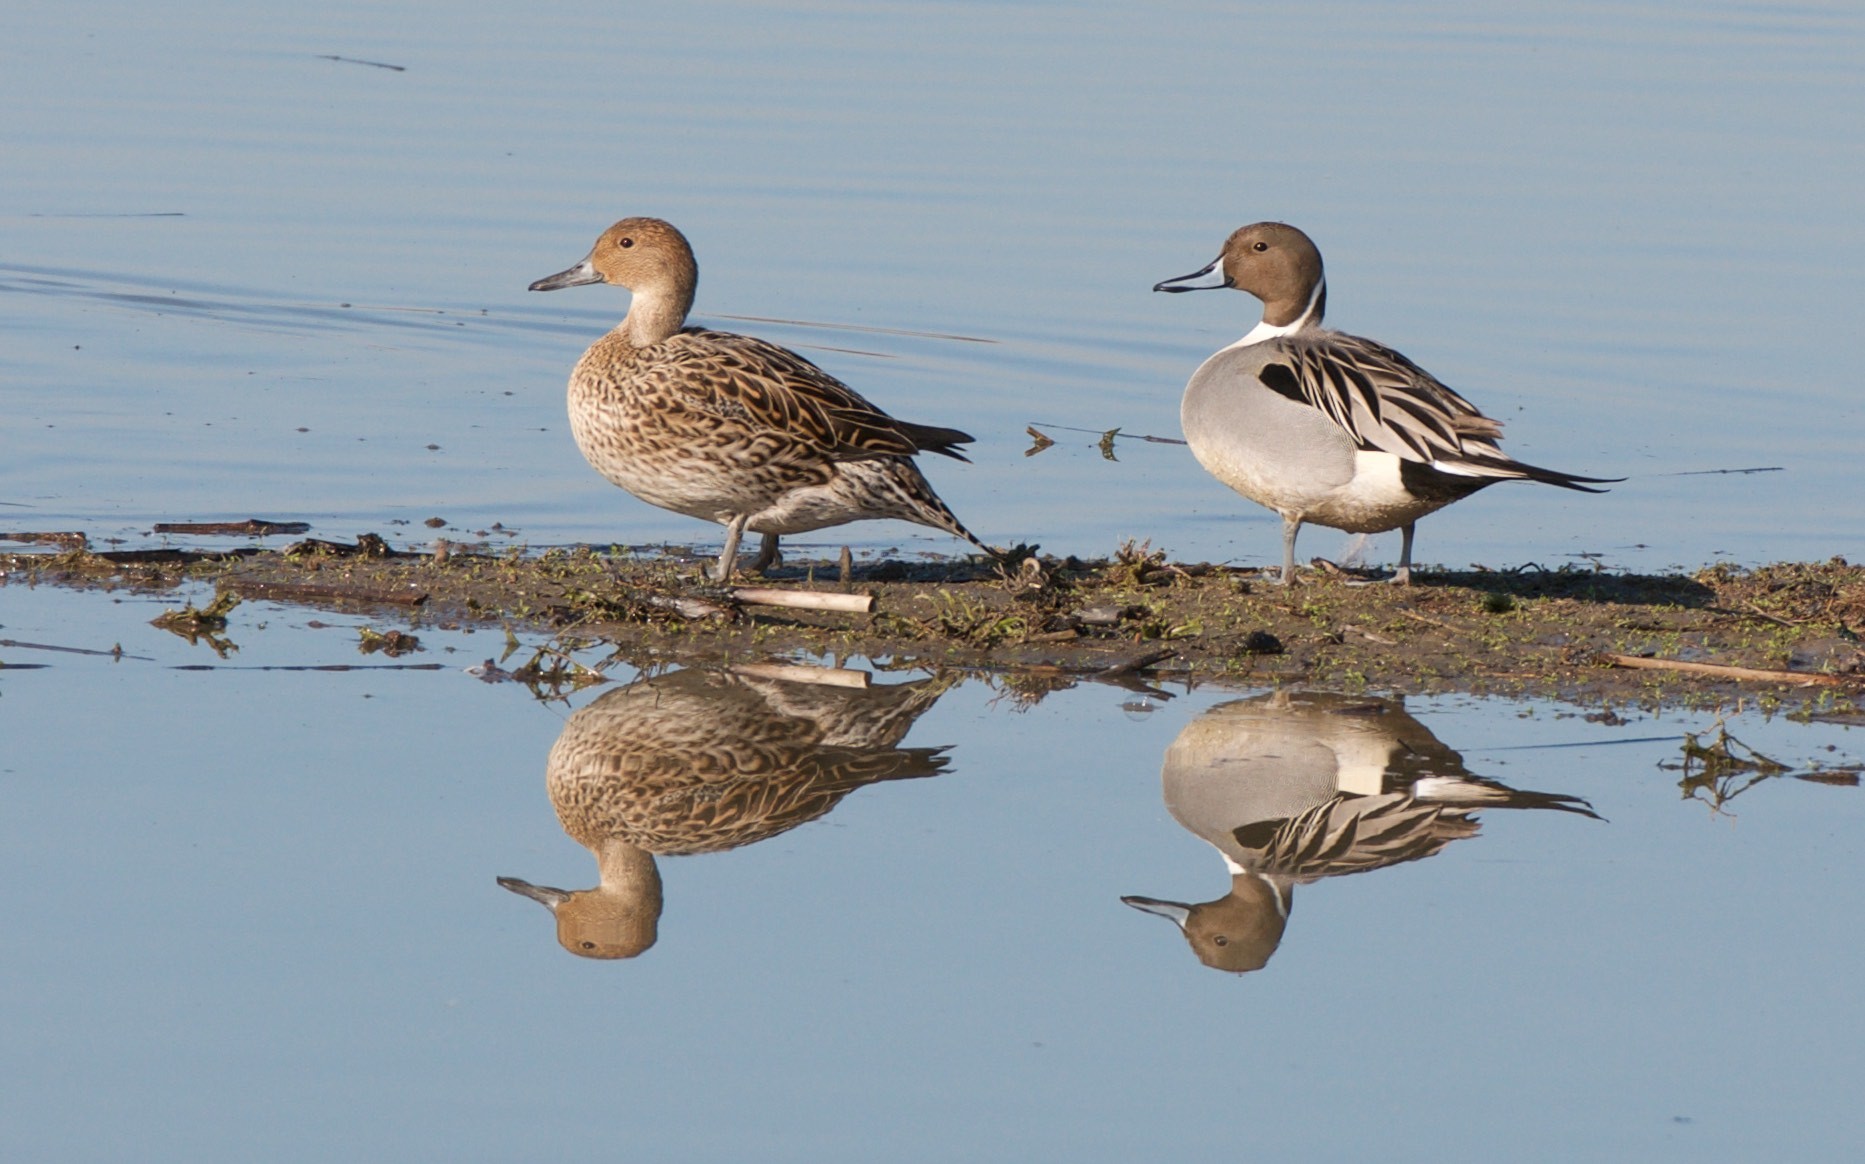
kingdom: Animalia
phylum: Chordata
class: Aves
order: Anseriformes
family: Anatidae
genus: Anas
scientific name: Anas acuta
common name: Northern pintail
